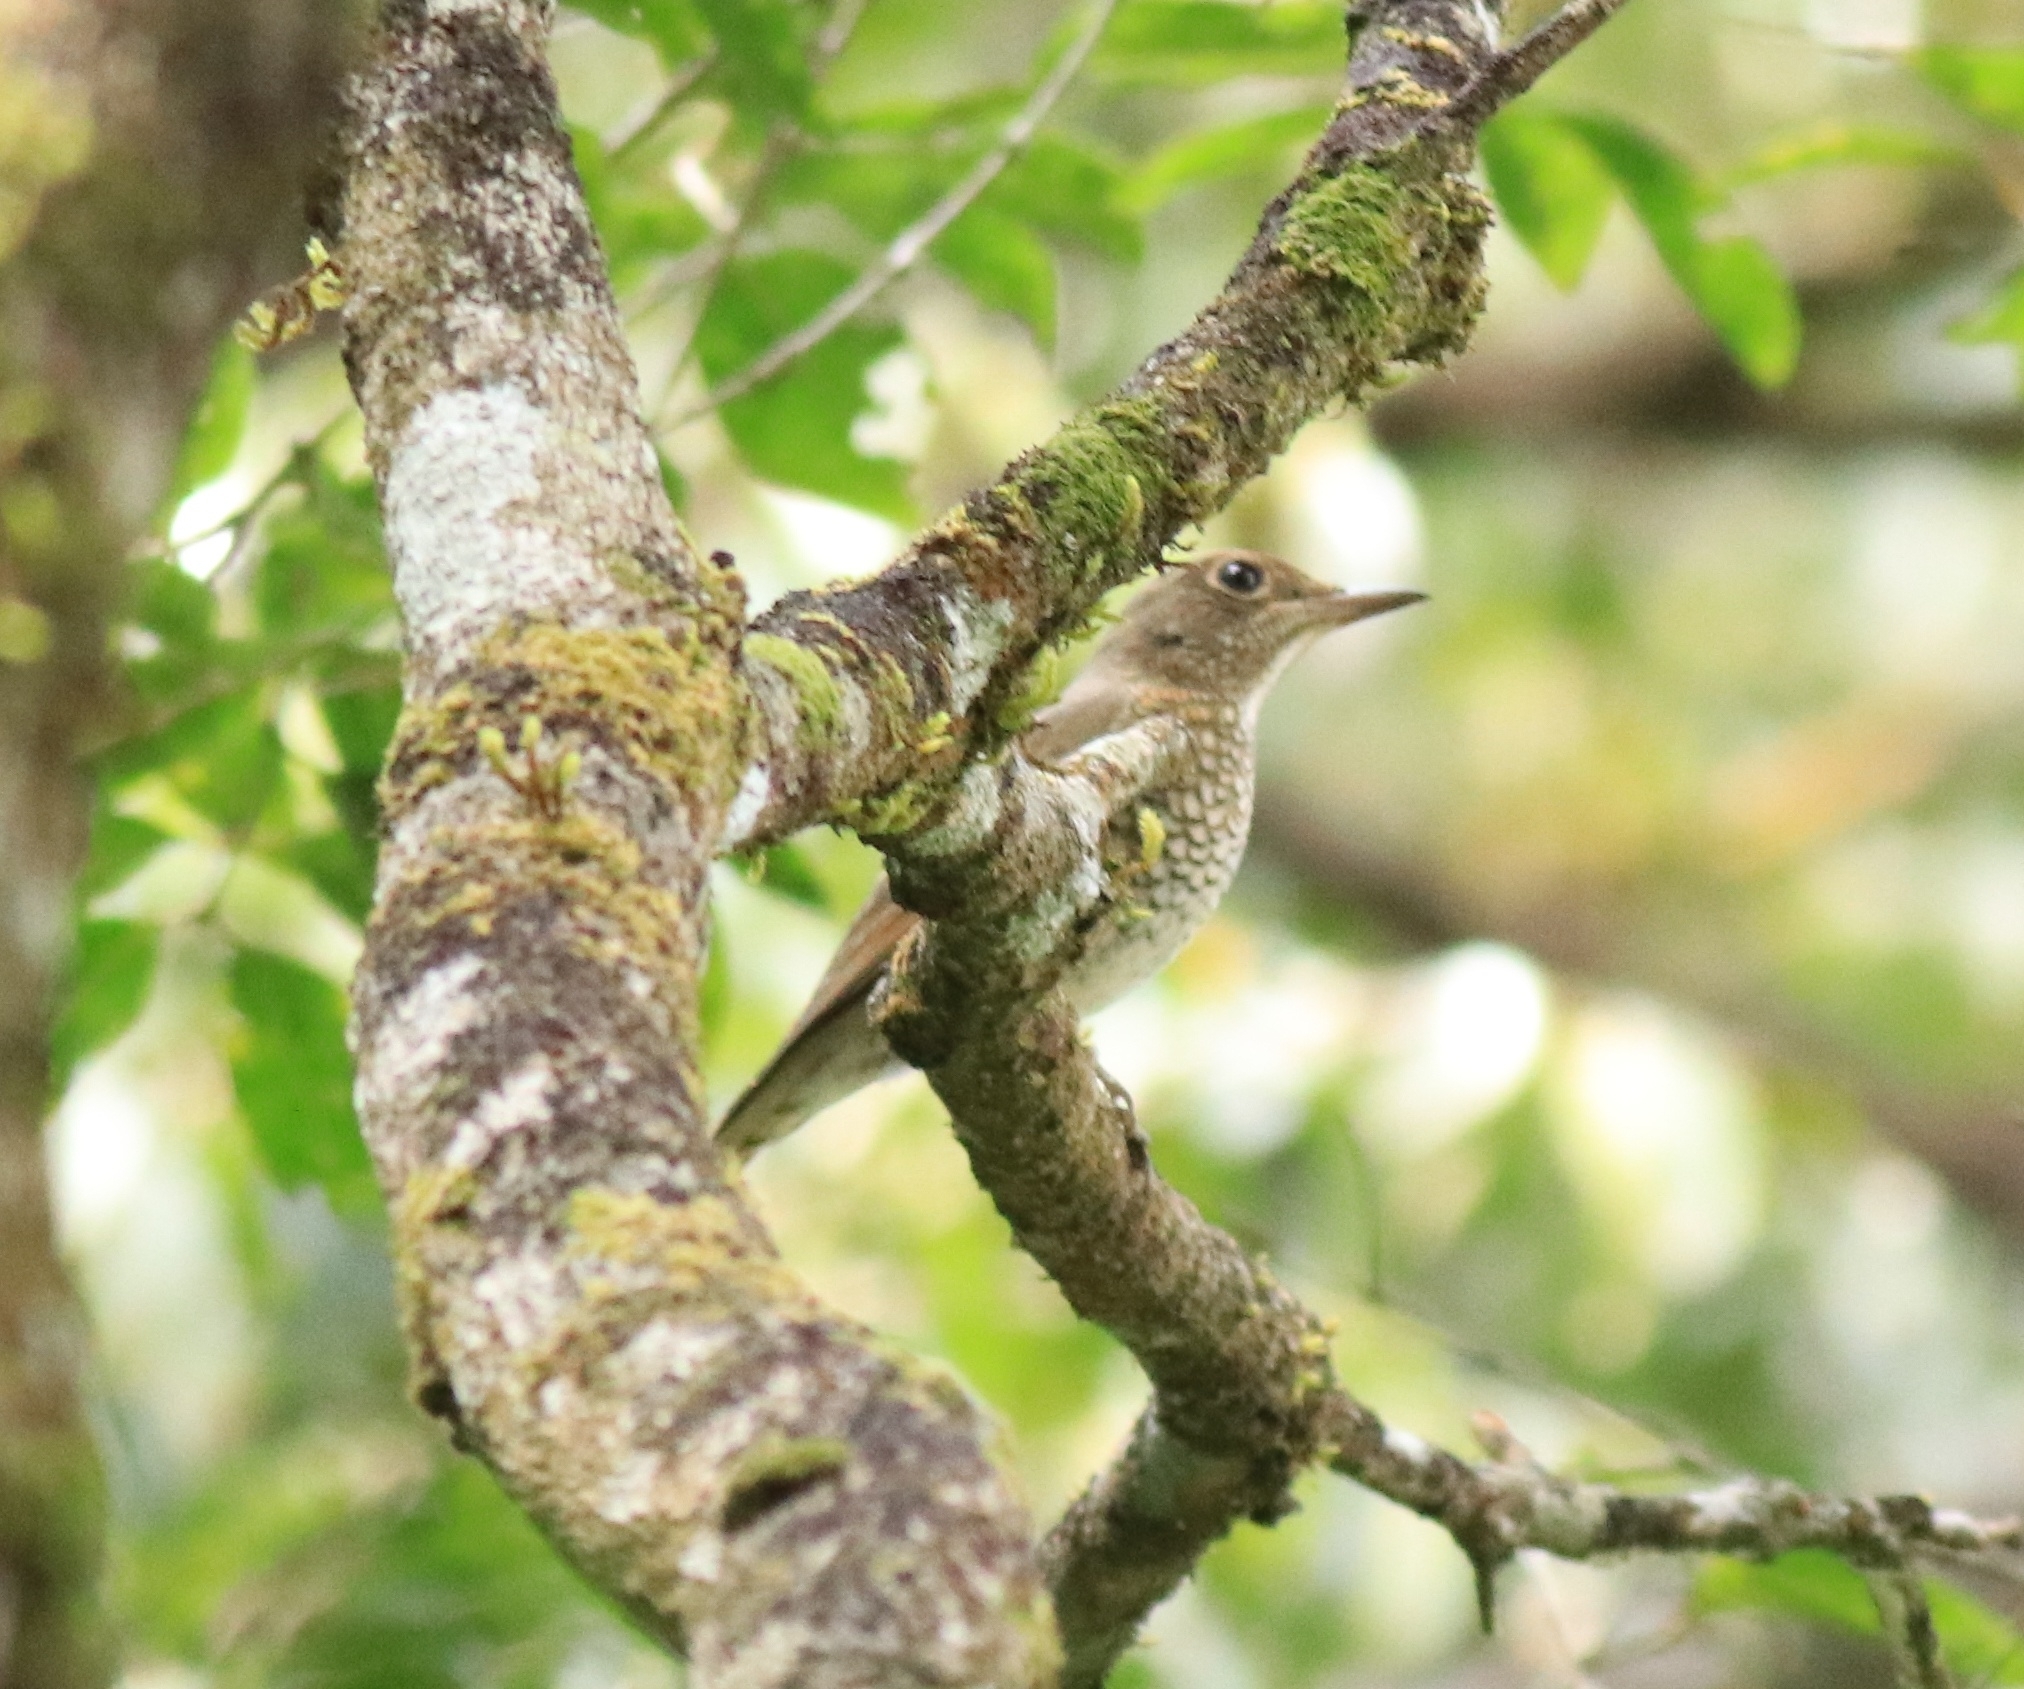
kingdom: Animalia
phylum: Chordata
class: Aves
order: Passeriformes
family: Muscicapidae
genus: Monticola
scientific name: Monticola cinclorhynchus
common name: Blue-capped rock thrush
